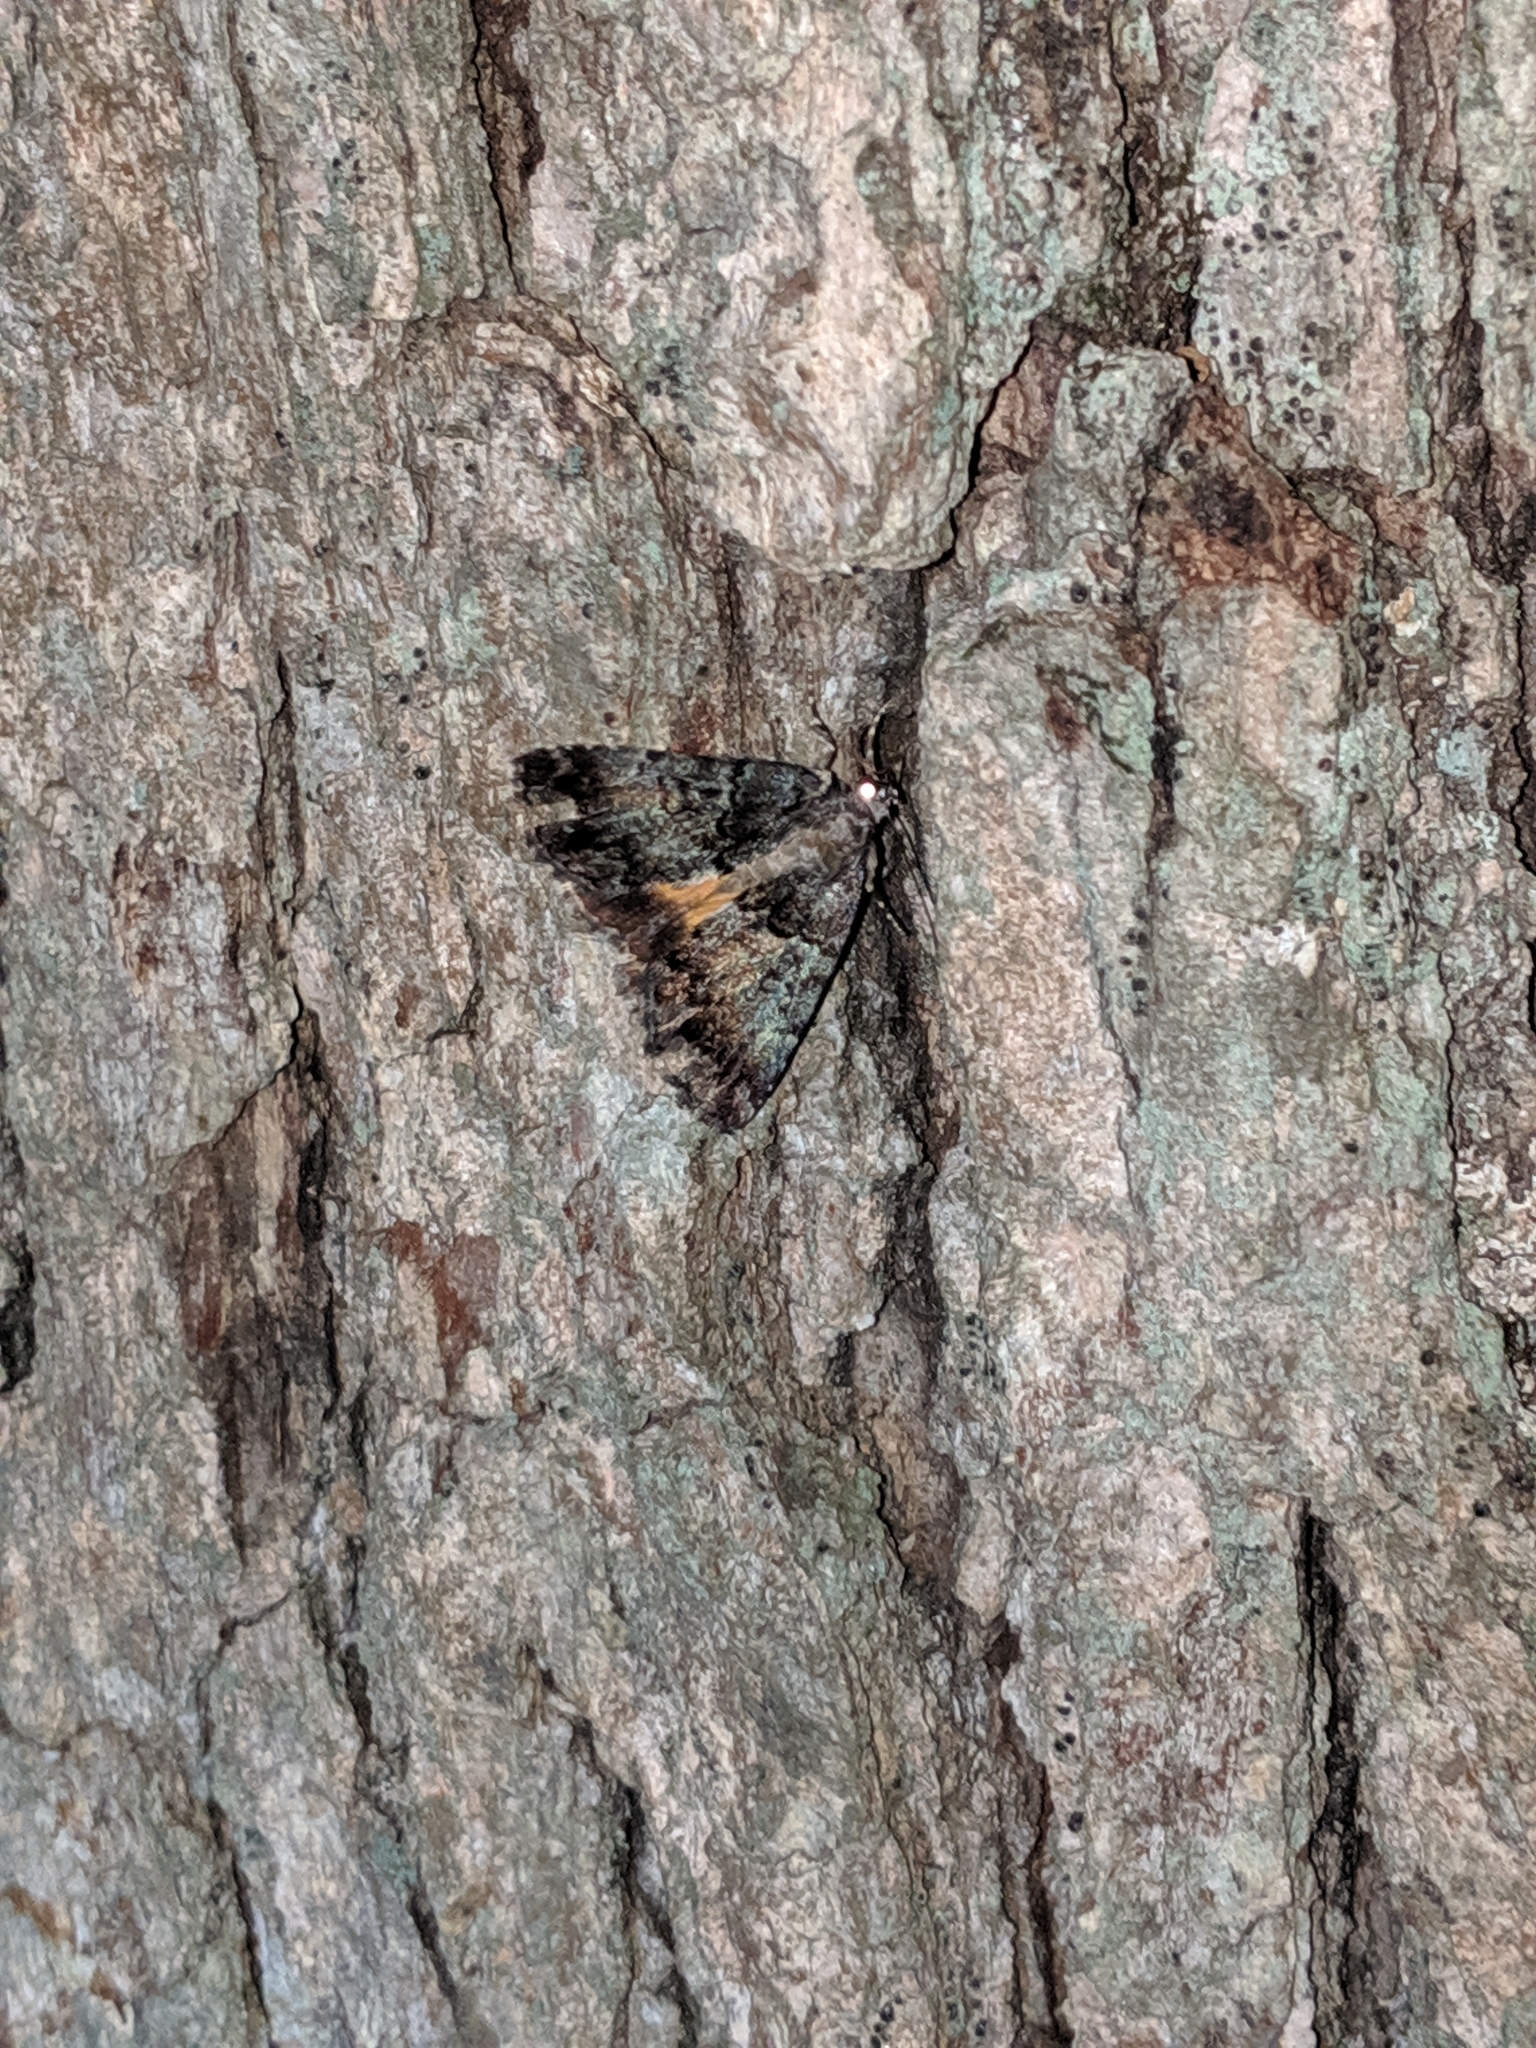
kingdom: Animalia
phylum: Arthropoda
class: Insecta
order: Lepidoptera
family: Erebidae
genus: Allotria
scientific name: Allotria elonympha
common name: False underwing
